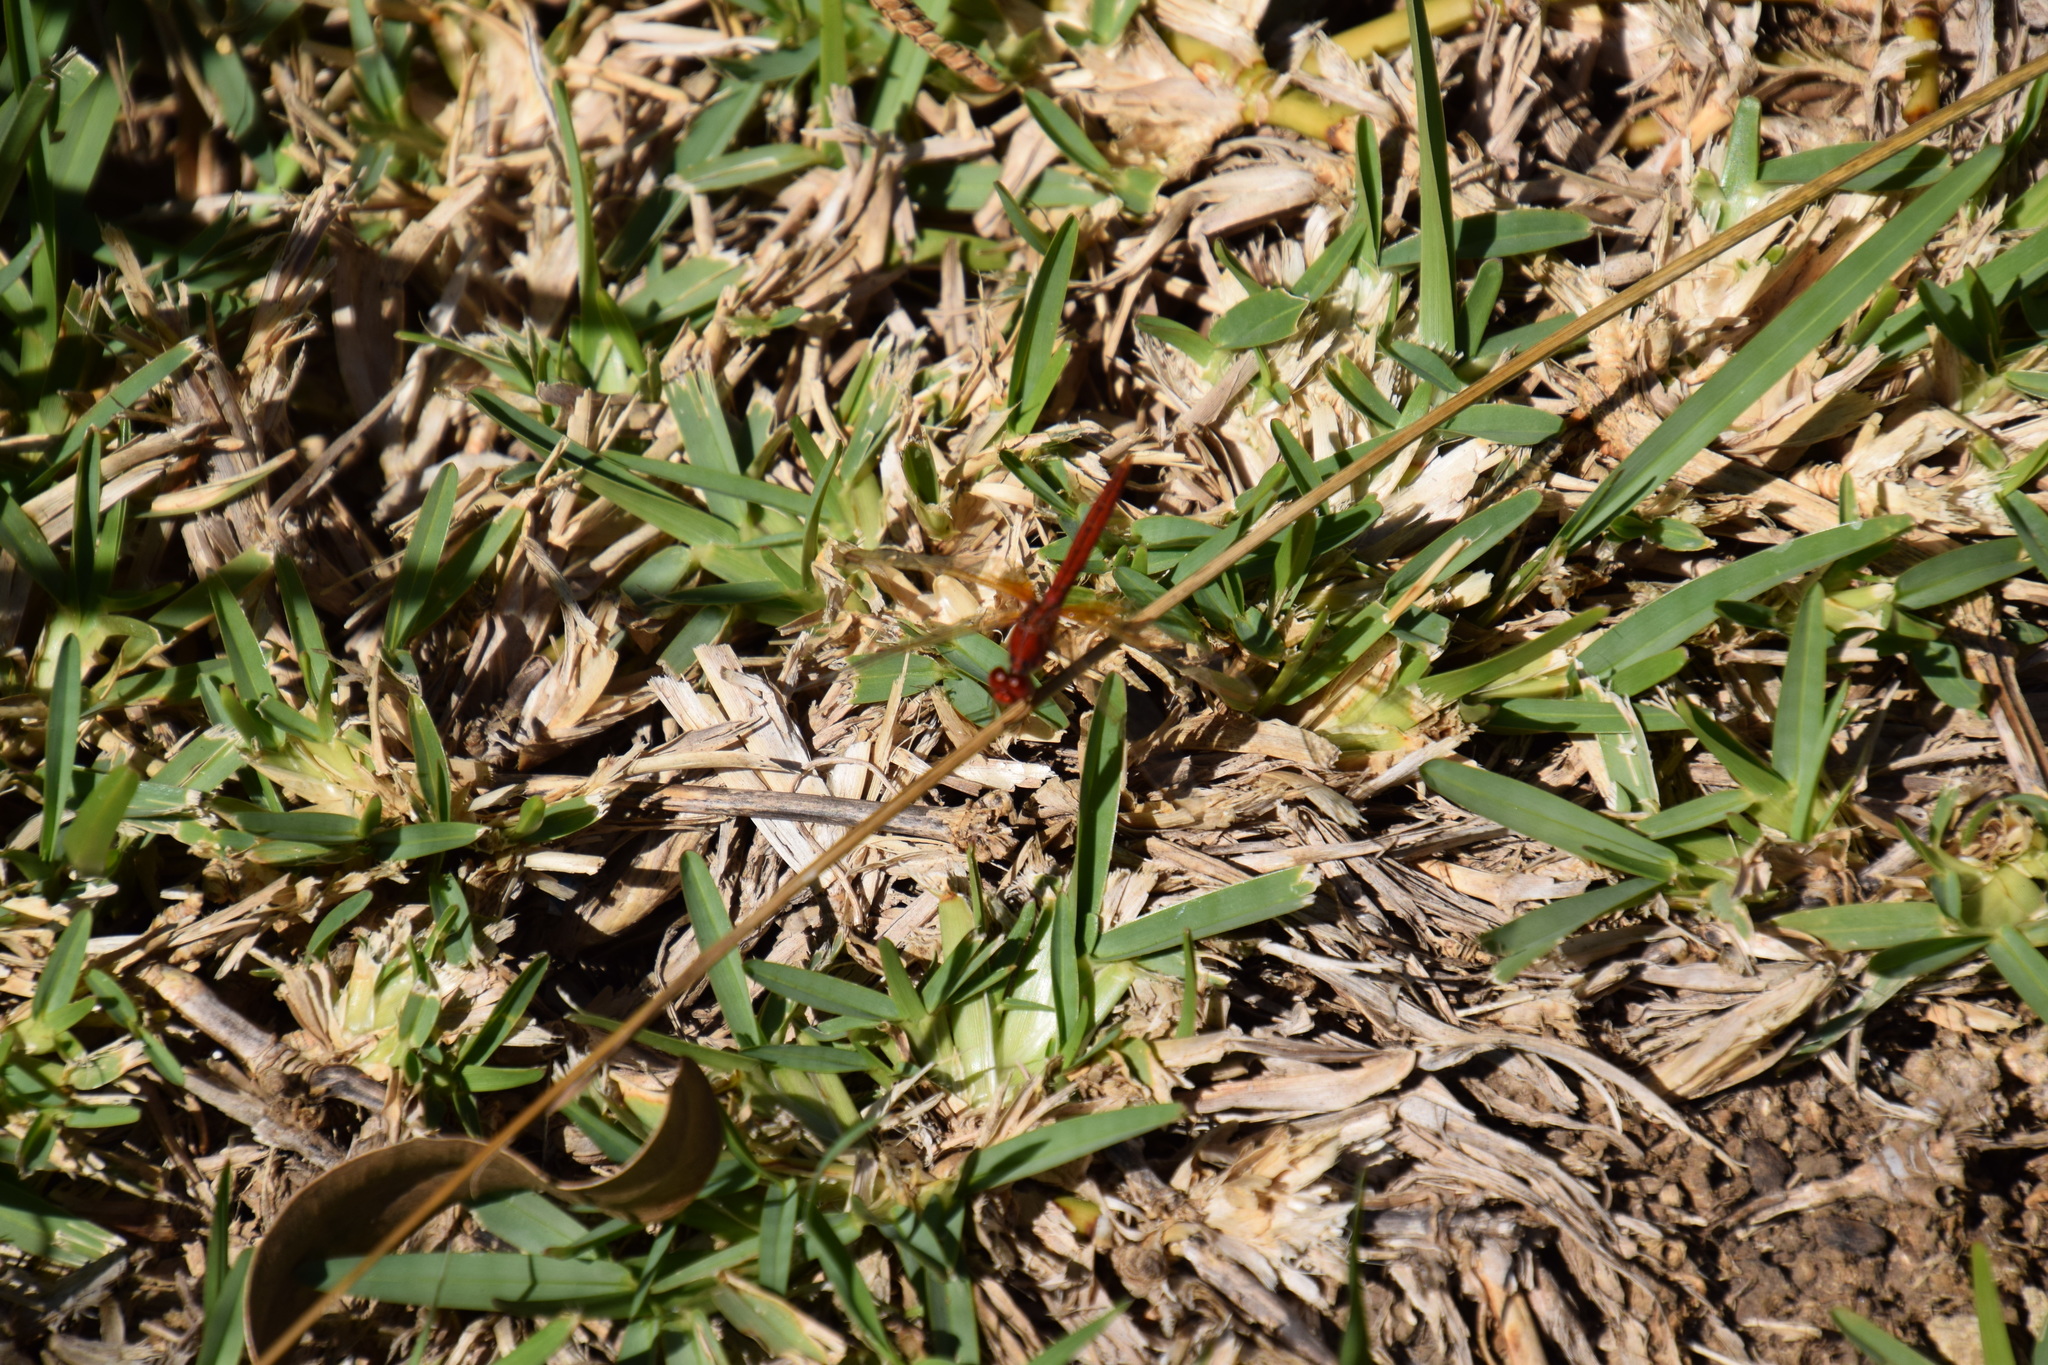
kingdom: Animalia
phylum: Arthropoda
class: Insecta
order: Odonata
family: Libellulidae
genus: Diplacodes
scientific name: Diplacodes haematodes
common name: Scarlet percher
